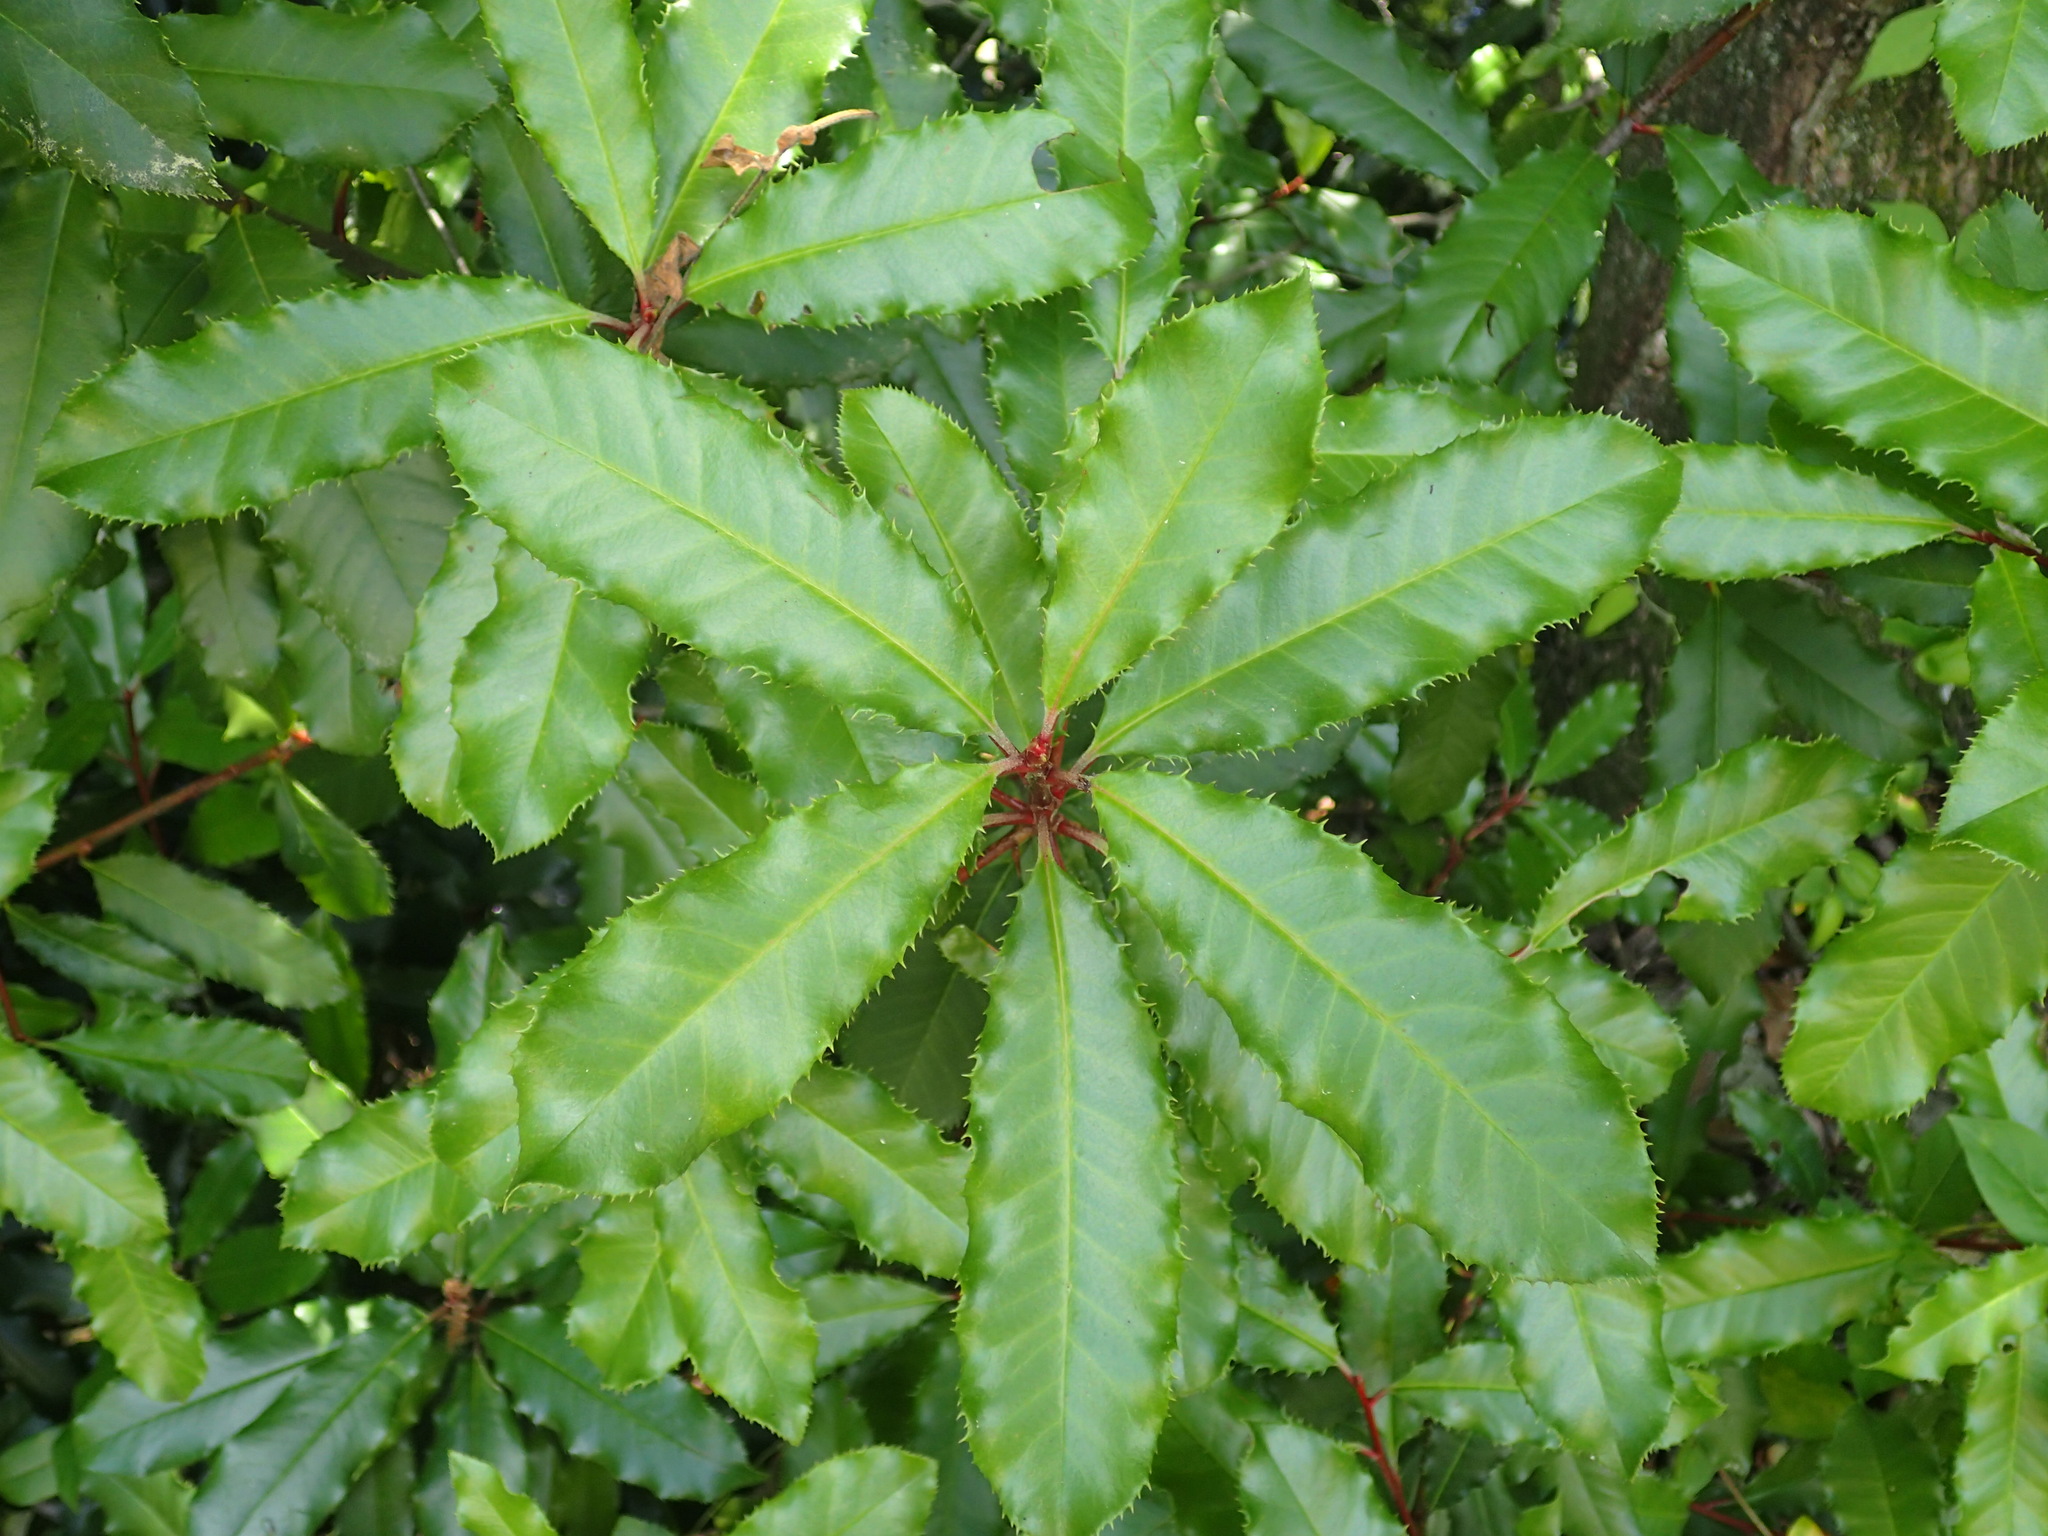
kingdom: Plantae
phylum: Tracheophyta
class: Magnoliopsida
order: Rosales
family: Rosaceae
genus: Photinia
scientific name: Photinia serratifolia
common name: Taiwanese photinia
